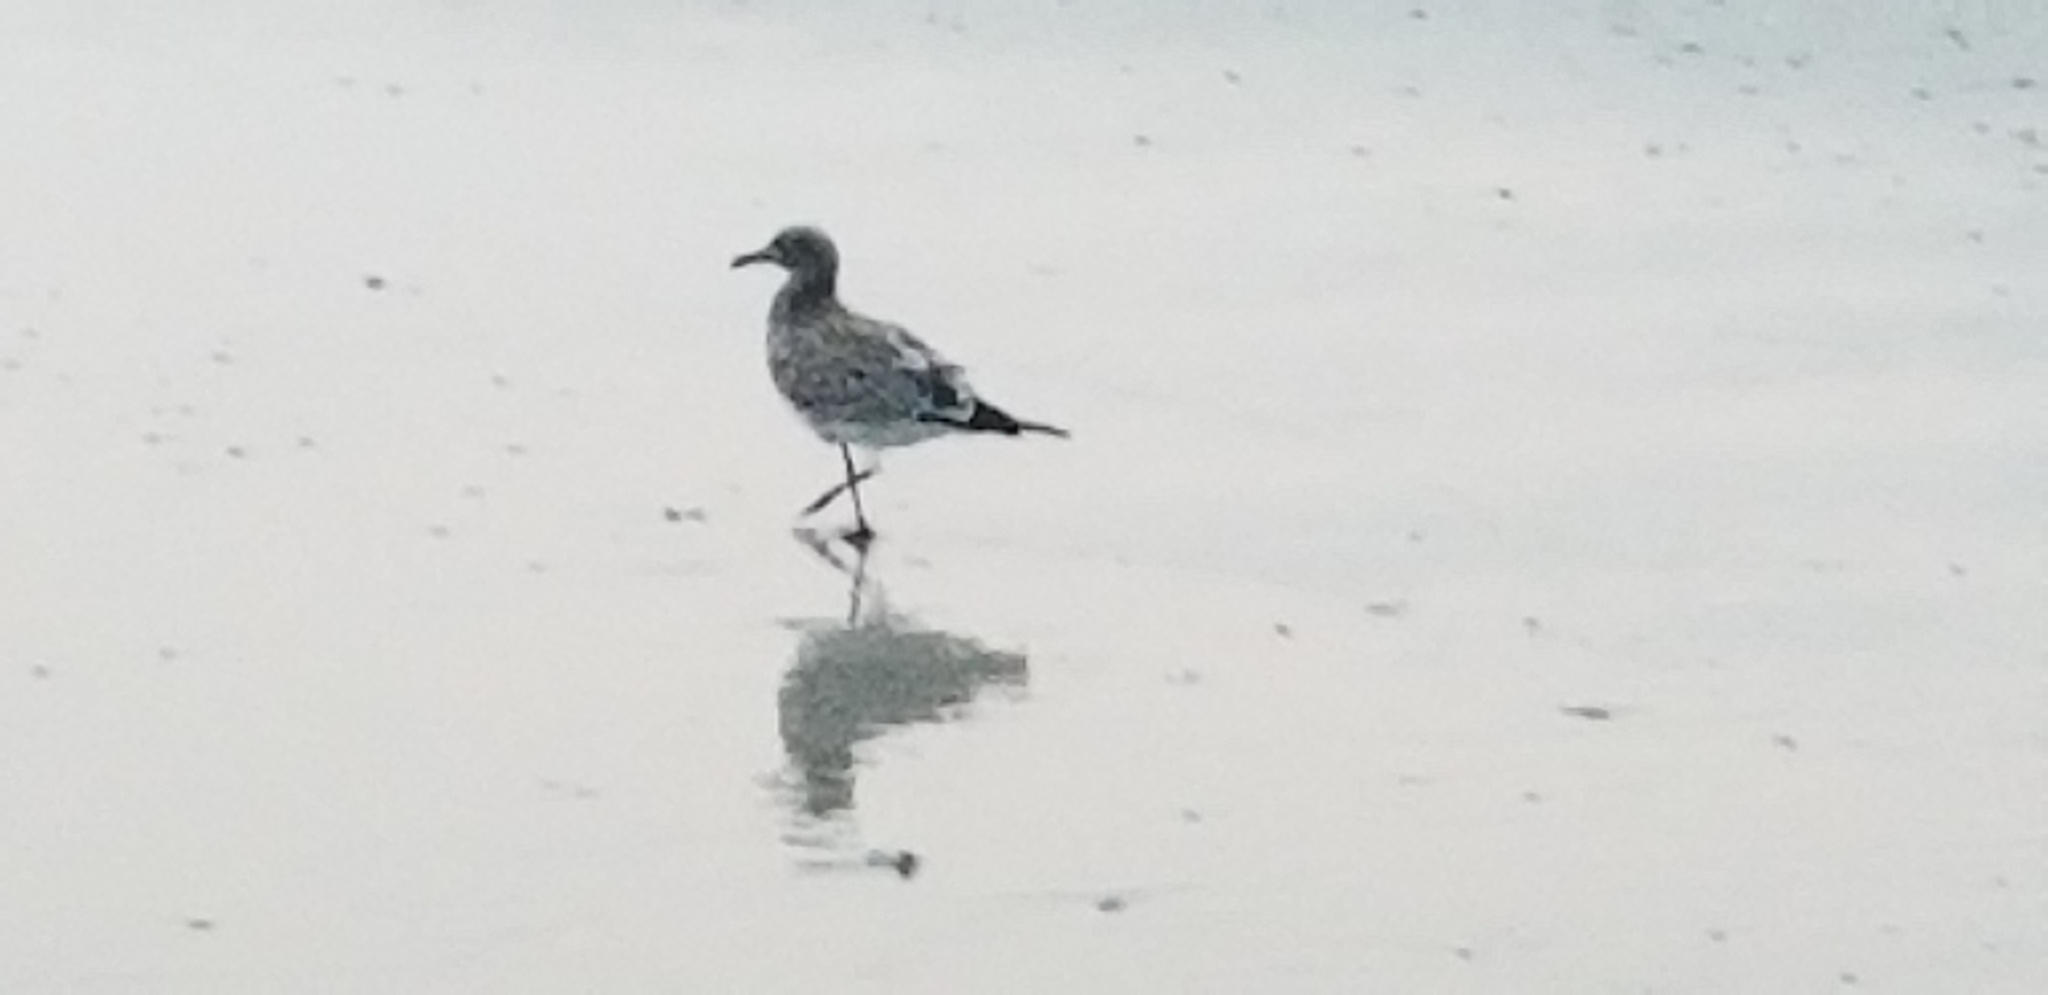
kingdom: Animalia
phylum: Chordata
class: Aves
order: Charadriiformes
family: Laridae
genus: Leucophaeus
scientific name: Leucophaeus atricilla
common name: Laughing gull
